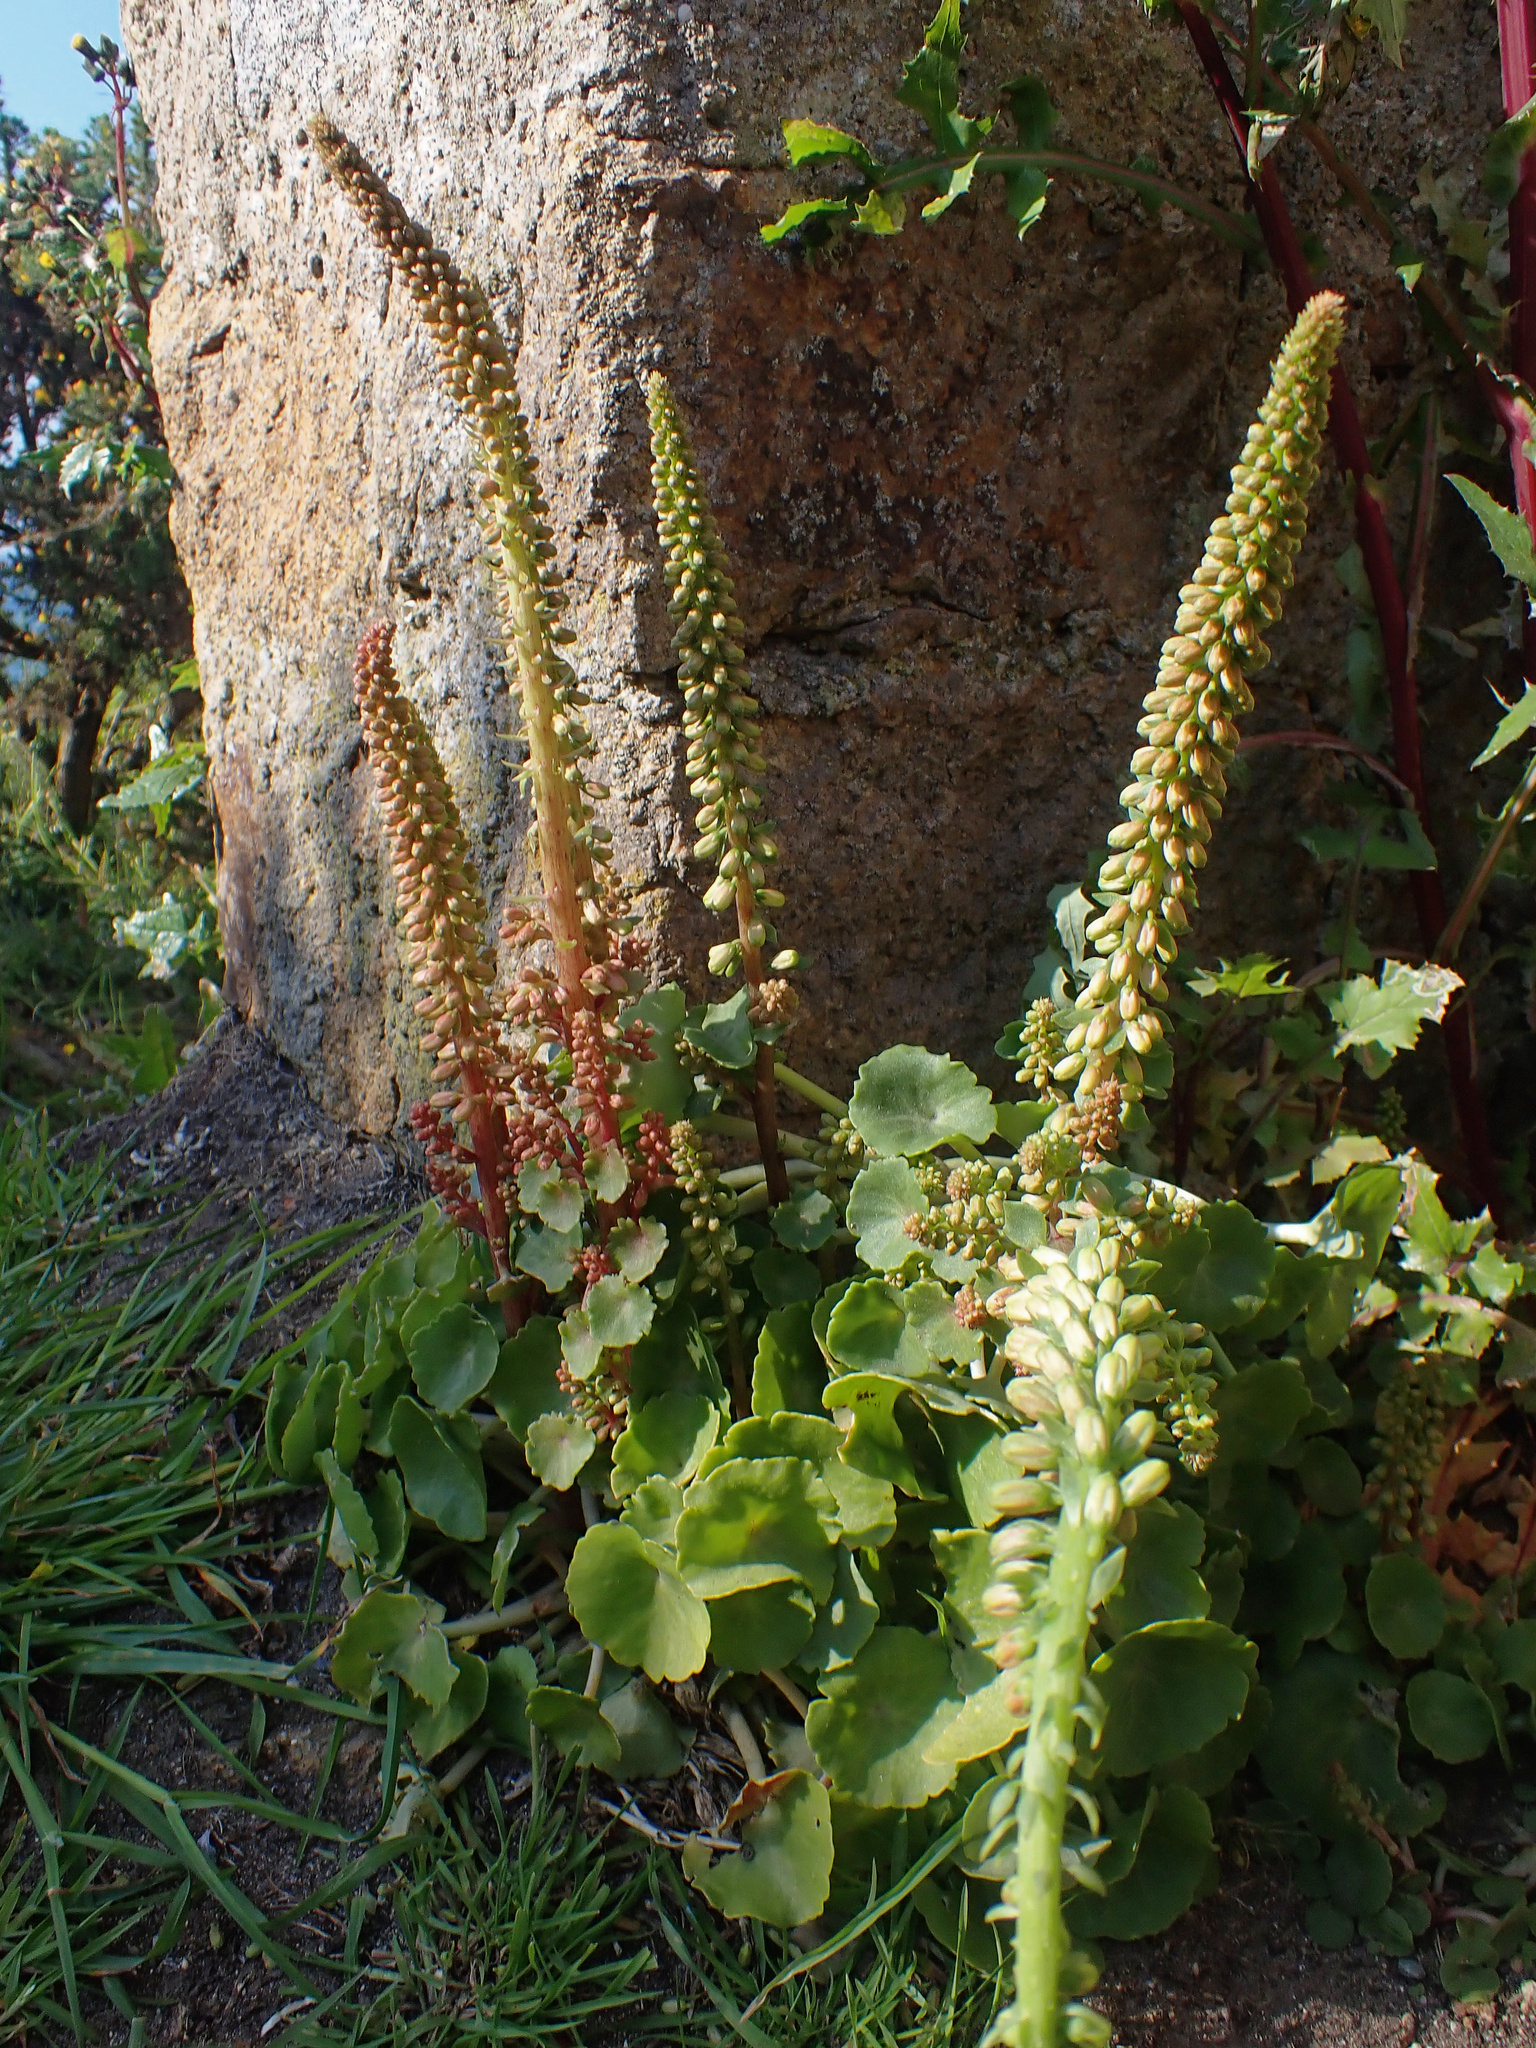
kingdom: Plantae
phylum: Tracheophyta
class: Magnoliopsida
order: Saxifragales
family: Crassulaceae
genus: Umbilicus
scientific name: Umbilicus rupestris
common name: Navelwort
